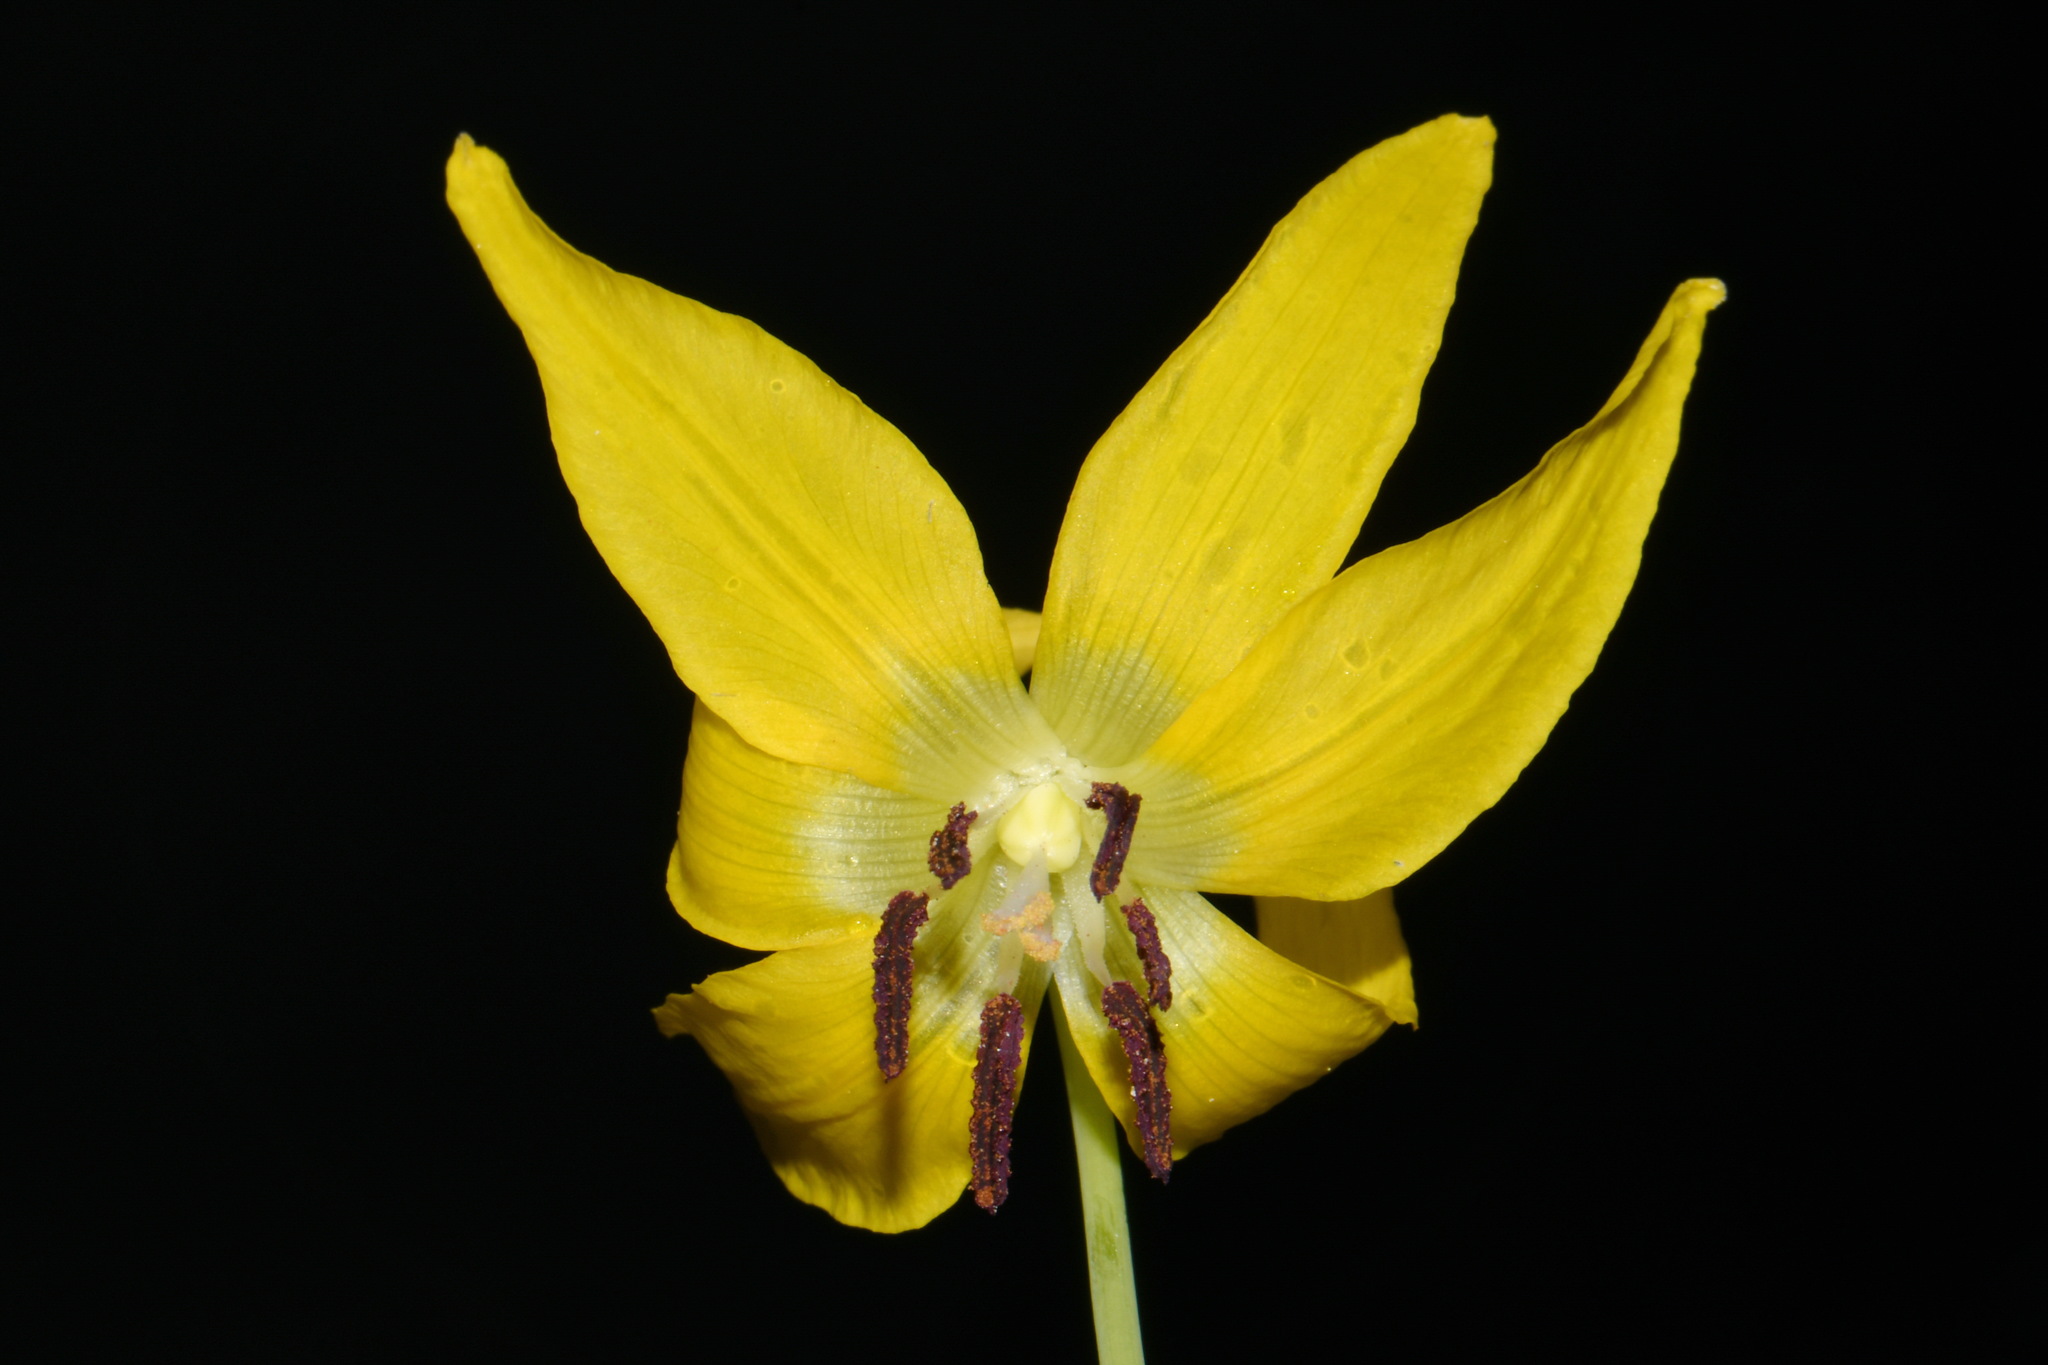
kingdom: Plantae
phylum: Tracheophyta
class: Liliopsida
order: Liliales
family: Liliaceae
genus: Erythronium
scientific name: Erythronium grandiflorum
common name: Avalanche-lily
